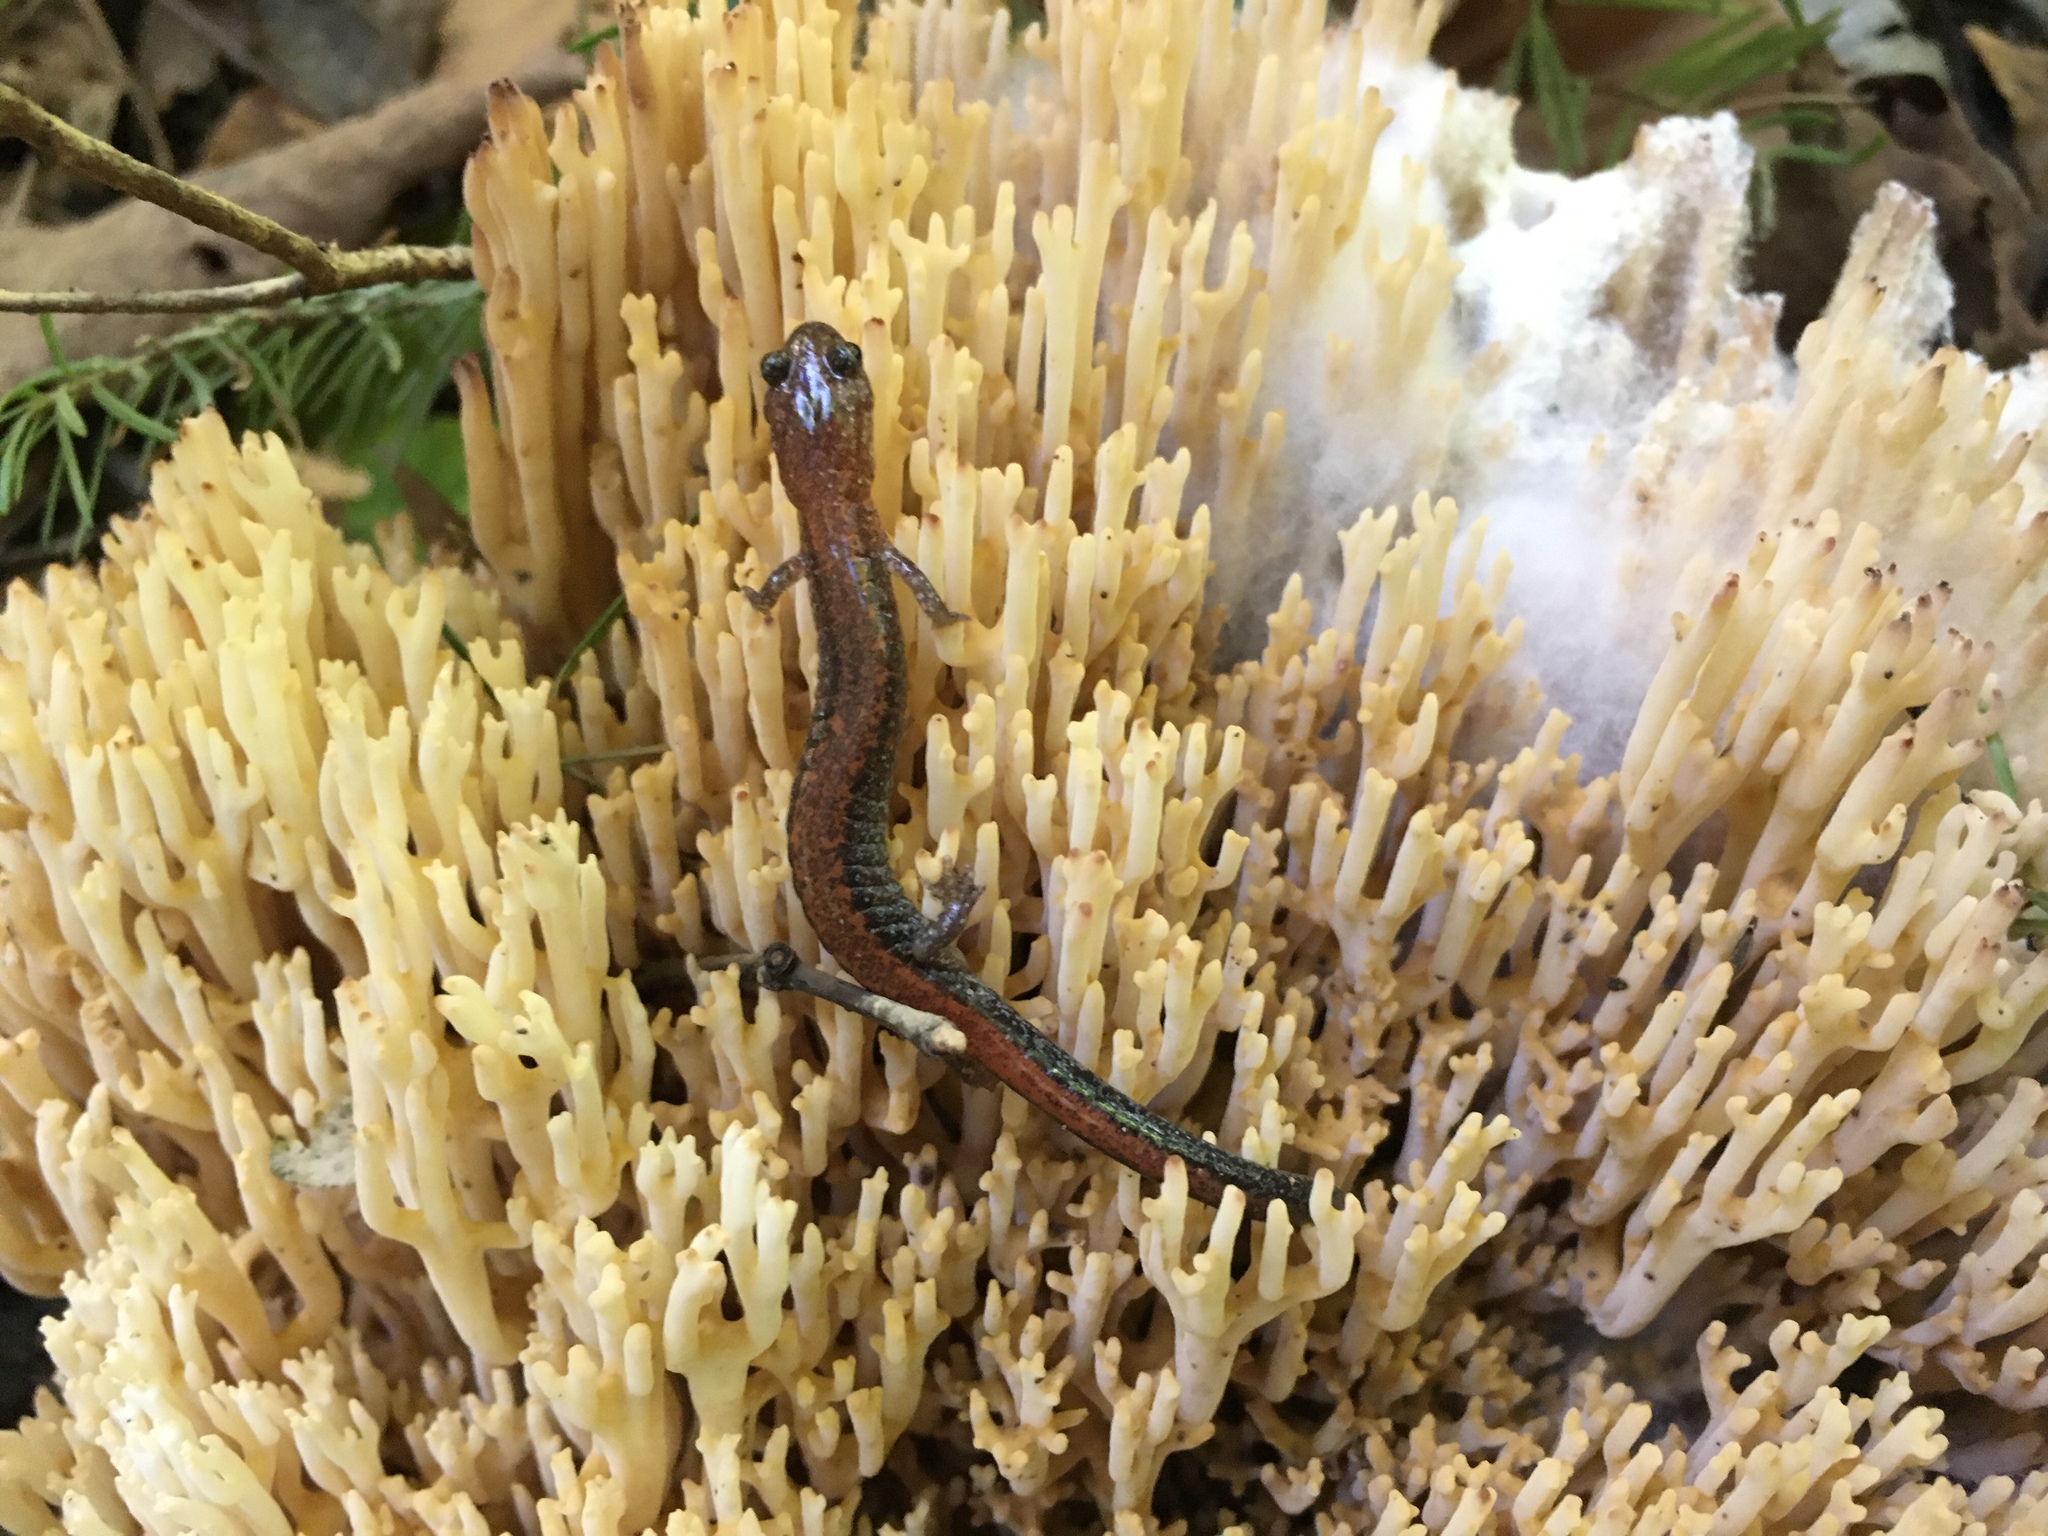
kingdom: Animalia
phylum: Chordata
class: Amphibia
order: Caudata
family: Plethodontidae
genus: Plethodon
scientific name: Plethodon cinereus
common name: Redback salamander
